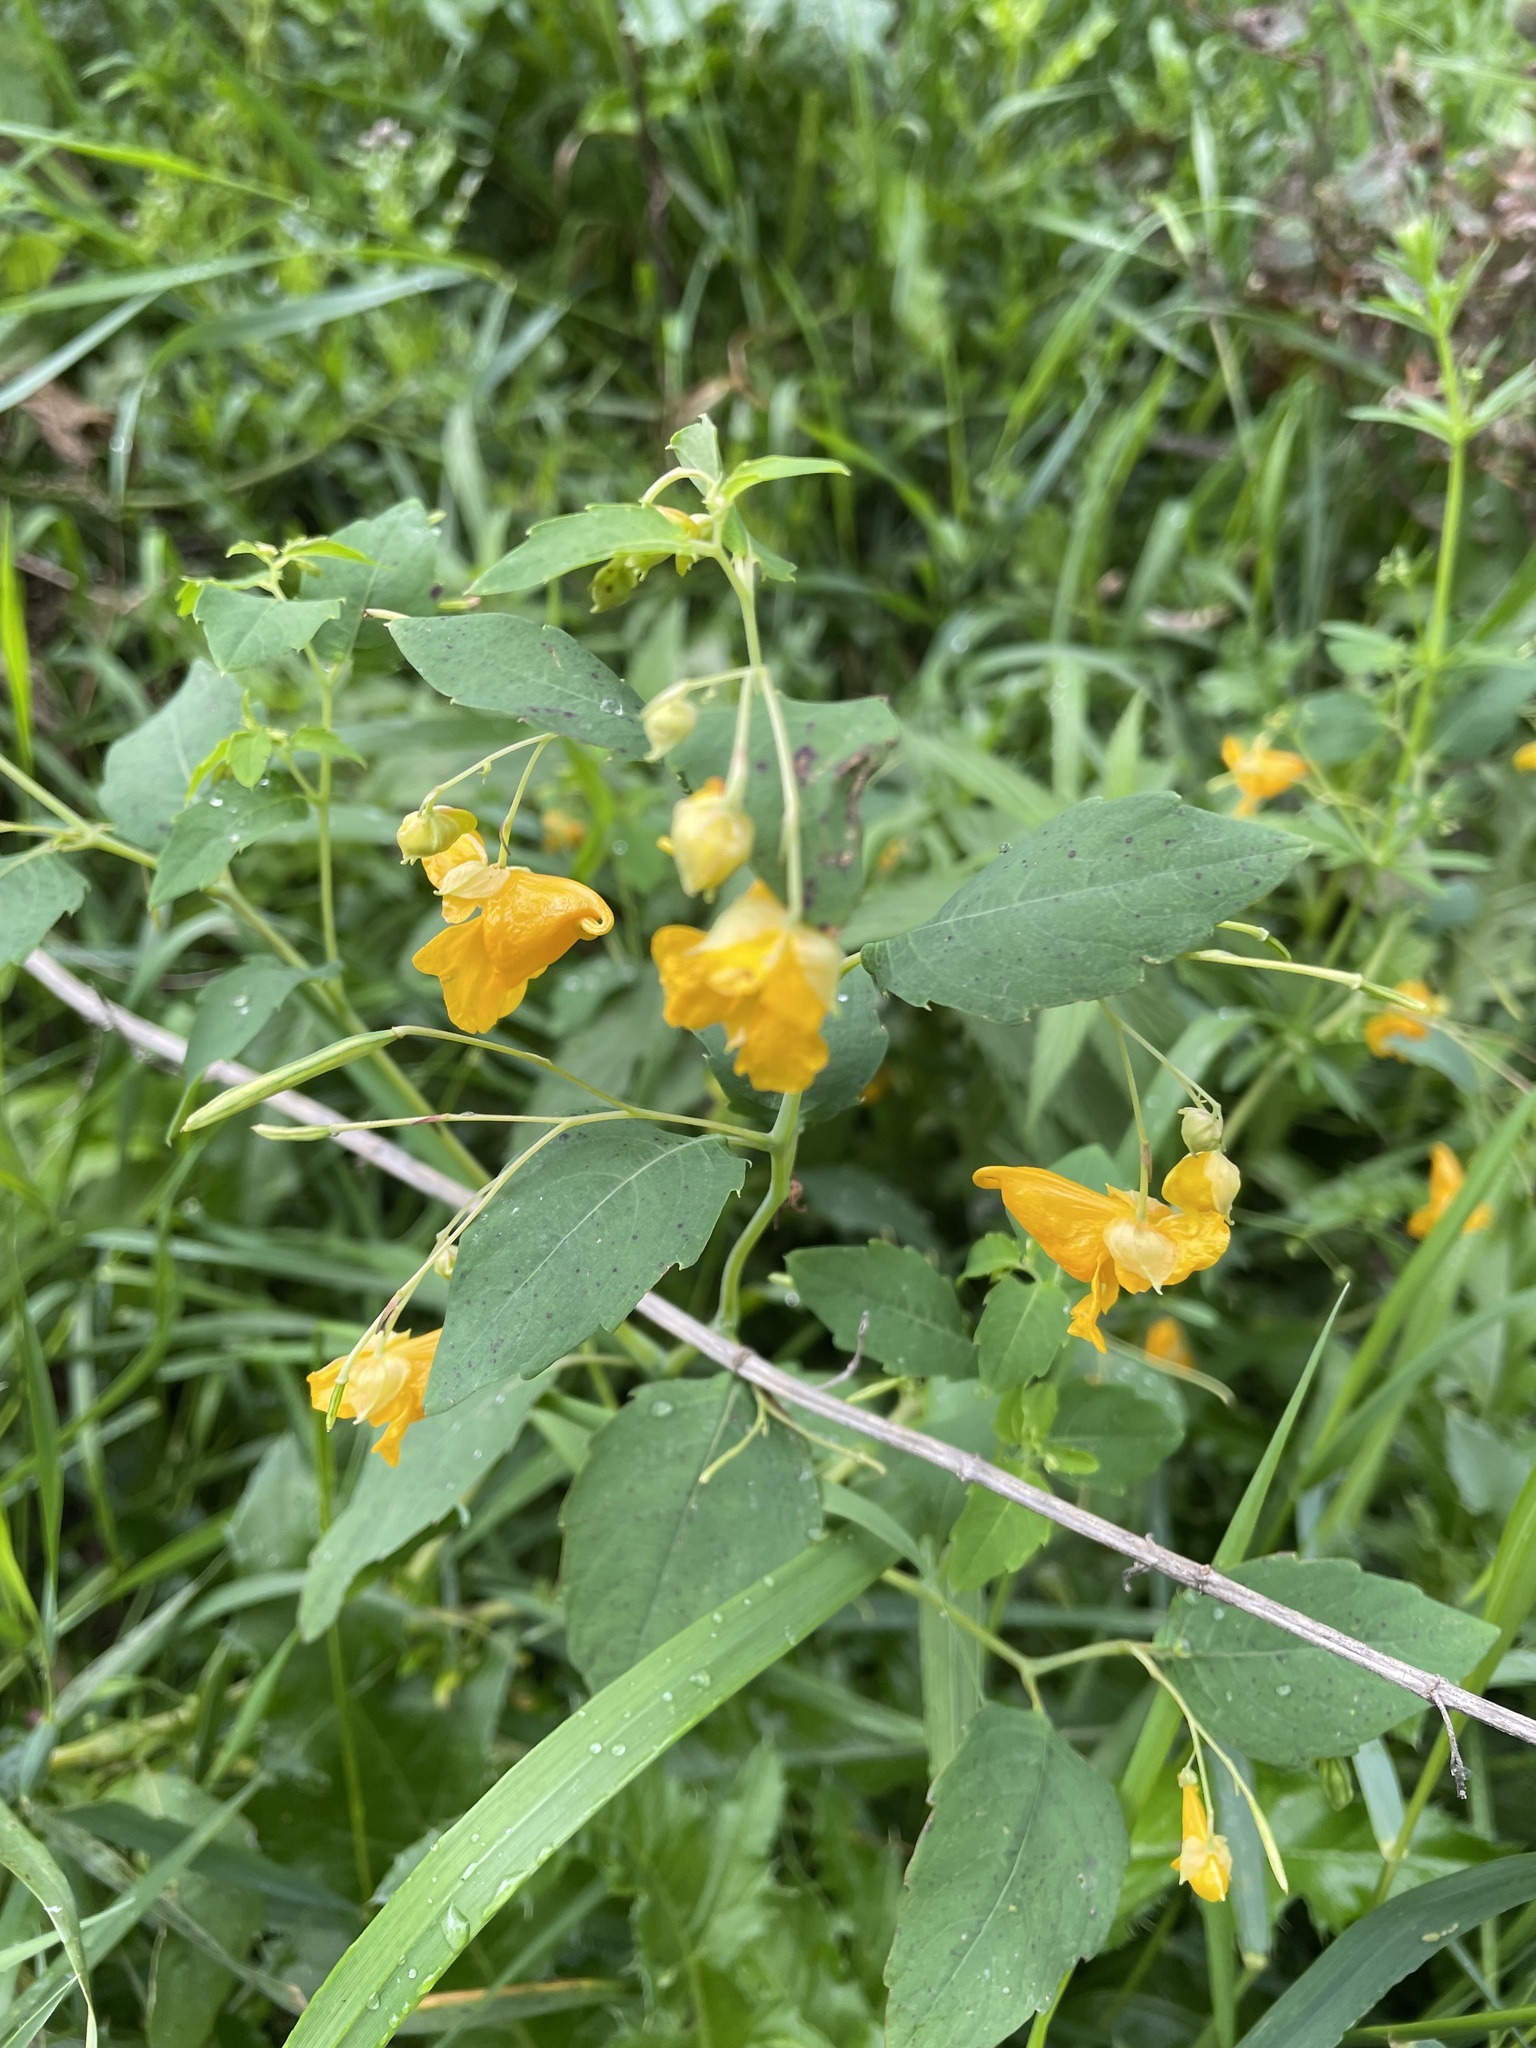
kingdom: Plantae
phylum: Tracheophyta
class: Magnoliopsida
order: Ericales
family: Balsaminaceae
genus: Impatiens
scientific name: Impatiens capensis
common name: Orange balsam
